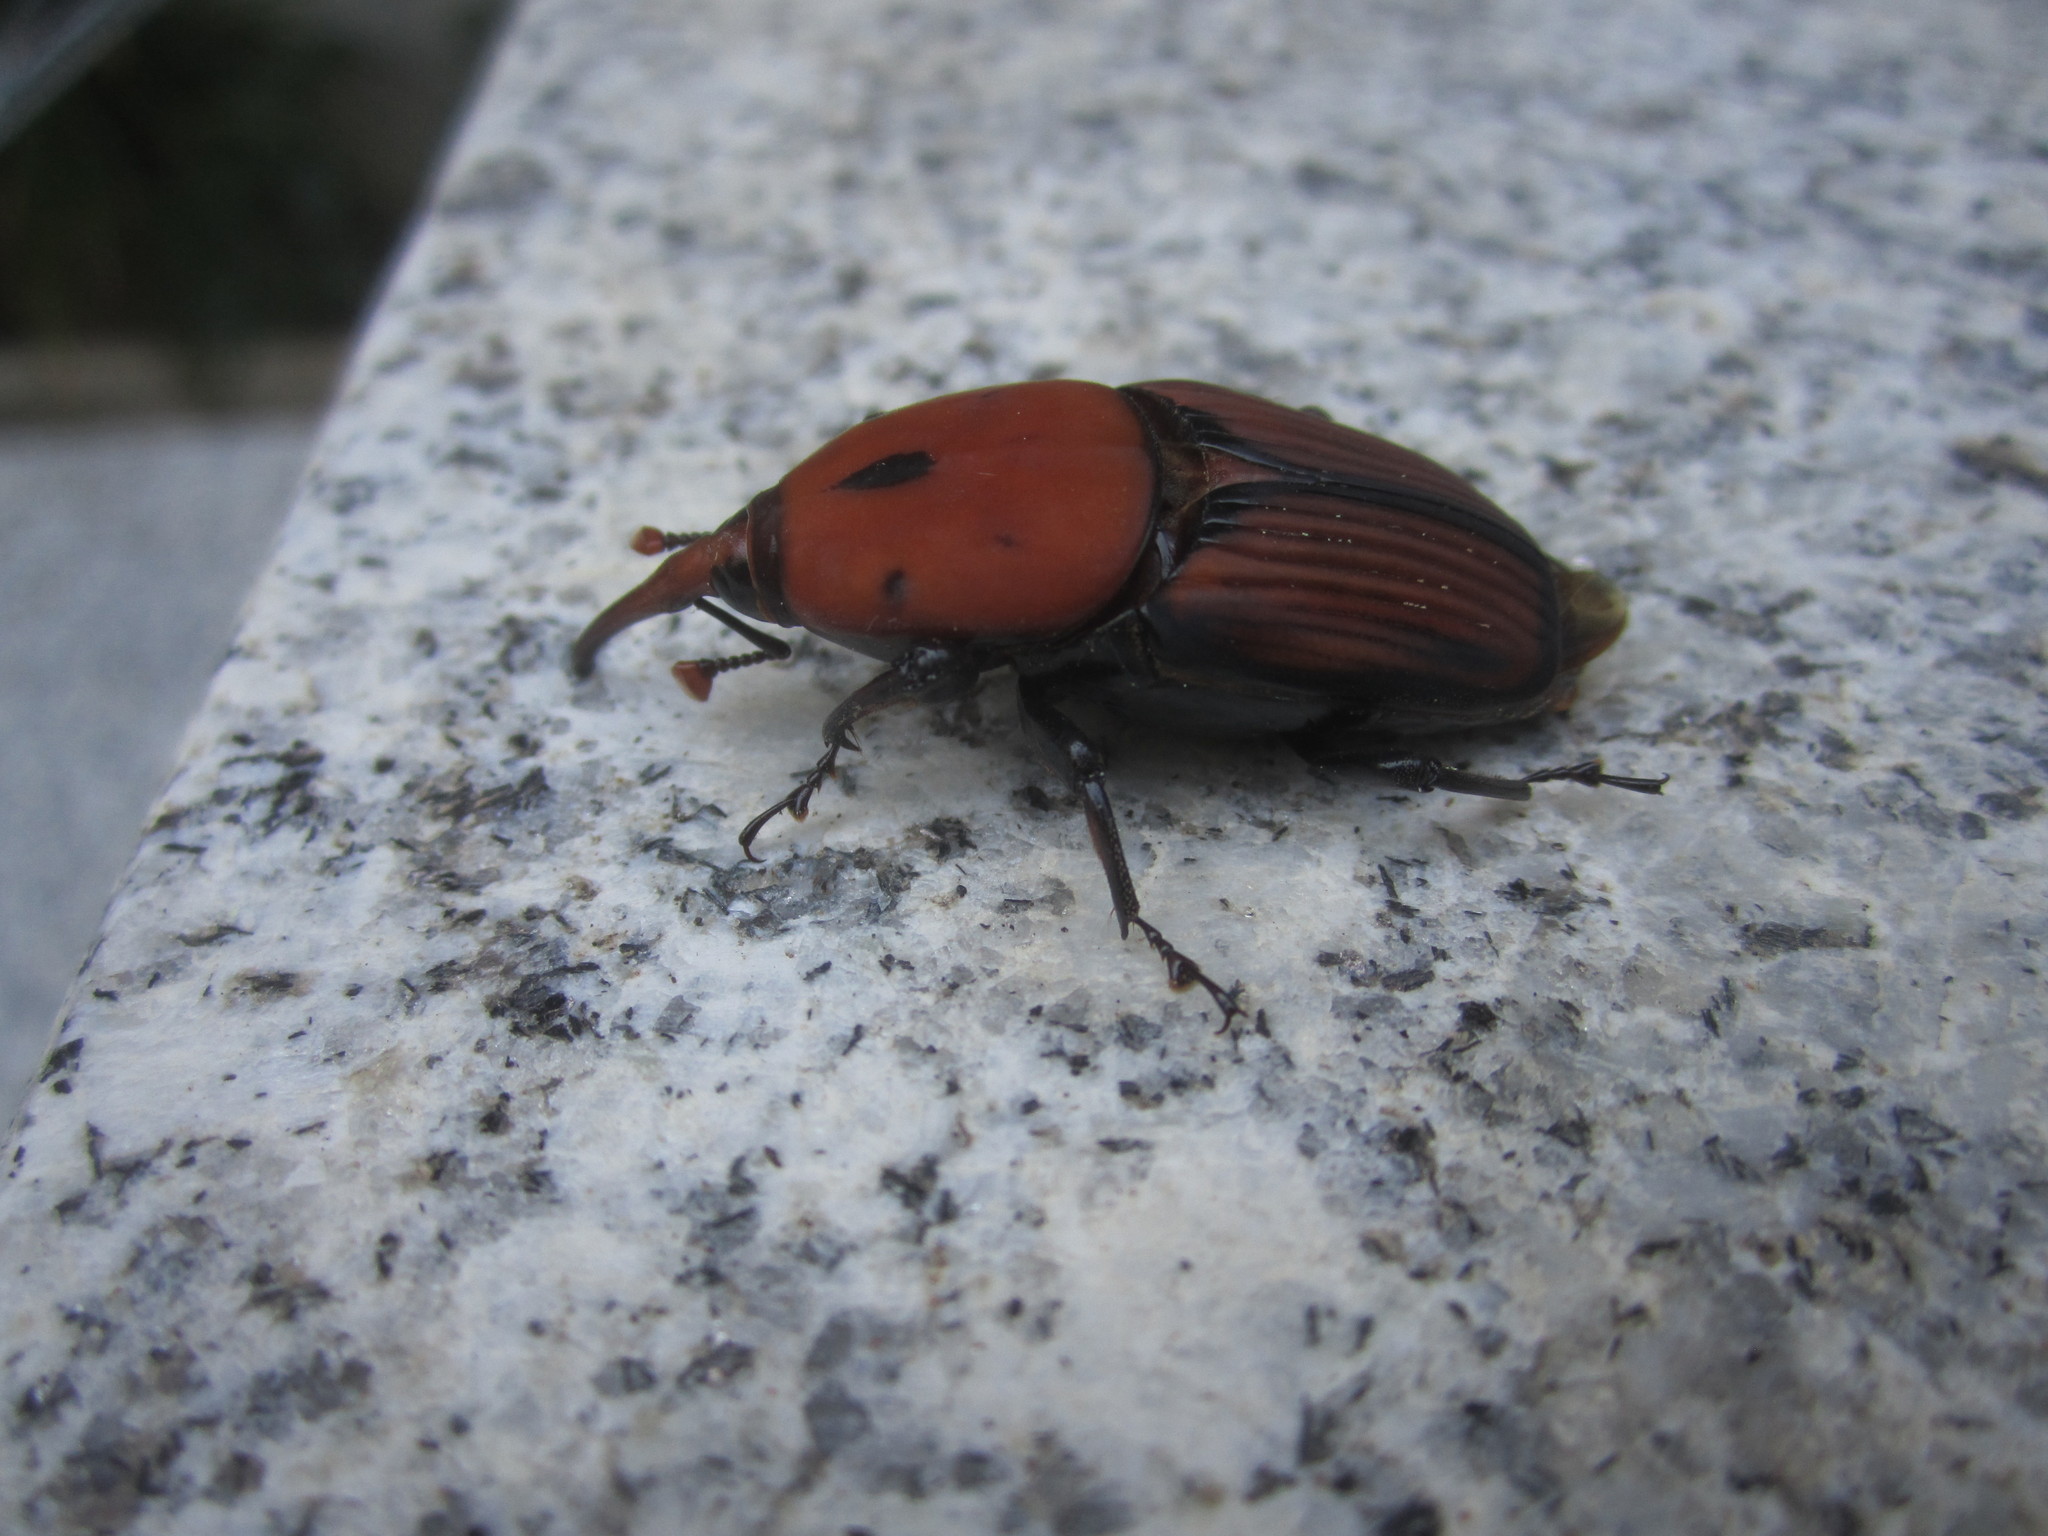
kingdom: Animalia
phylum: Arthropoda
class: Insecta
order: Coleoptera
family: Dryophthoridae
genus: Rhynchophorus
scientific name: Rhynchophorus ferrugineus
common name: Red palm weevil
